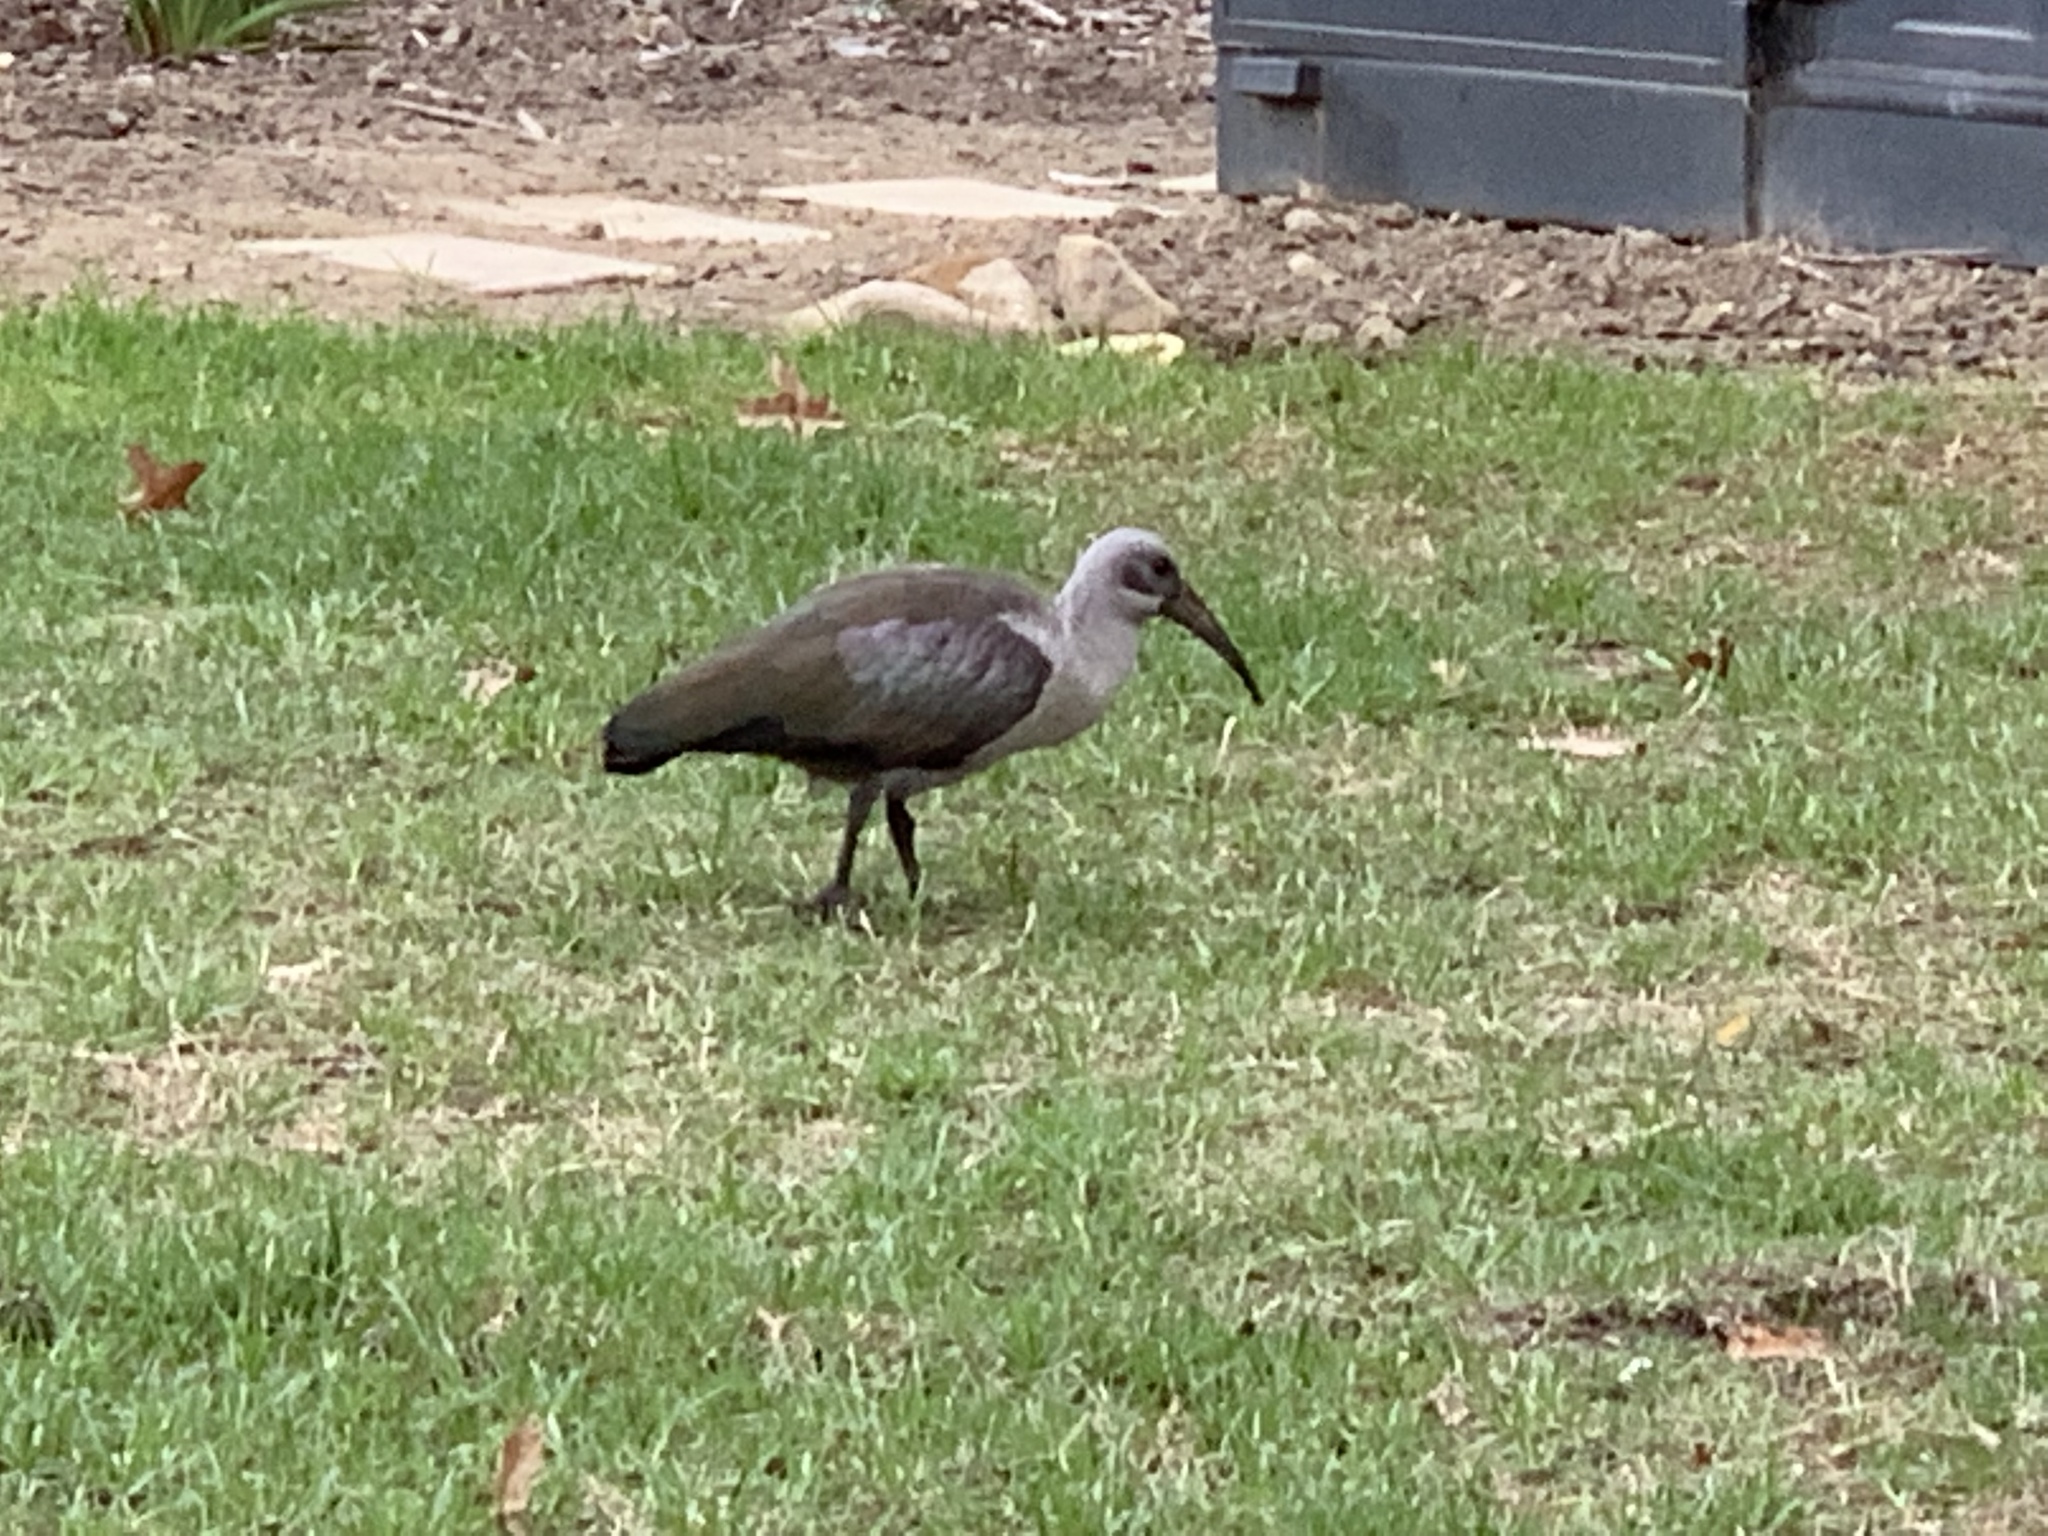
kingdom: Animalia
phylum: Chordata
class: Aves
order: Pelecaniformes
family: Threskiornithidae
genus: Bostrychia
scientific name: Bostrychia hagedash
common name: Hadada ibis
